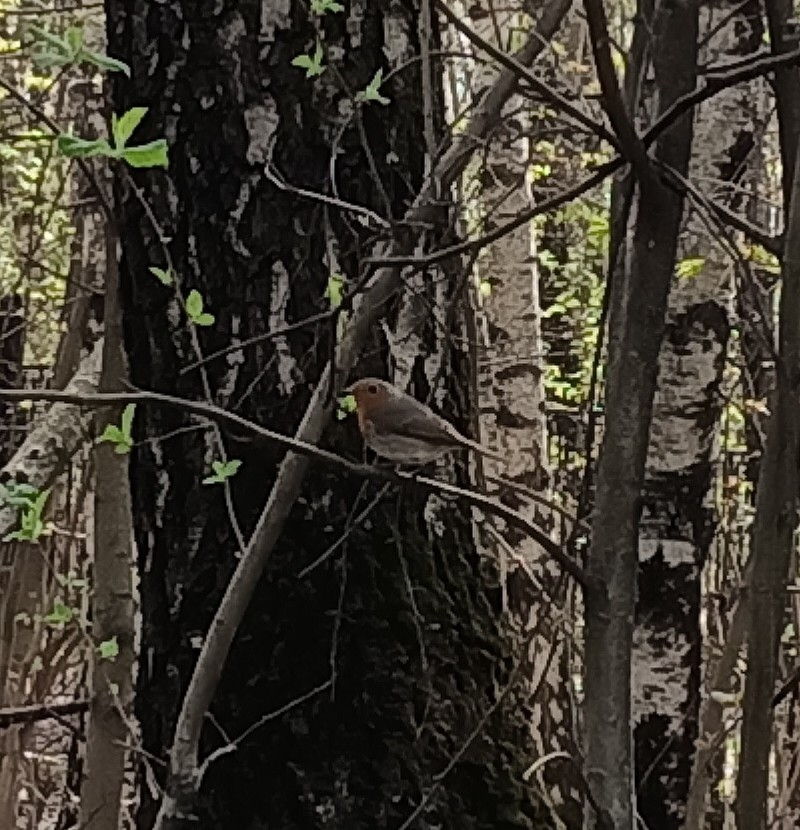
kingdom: Animalia
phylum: Chordata
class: Aves
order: Passeriformes
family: Muscicapidae
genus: Erithacus
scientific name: Erithacus rubecula
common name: European robin
